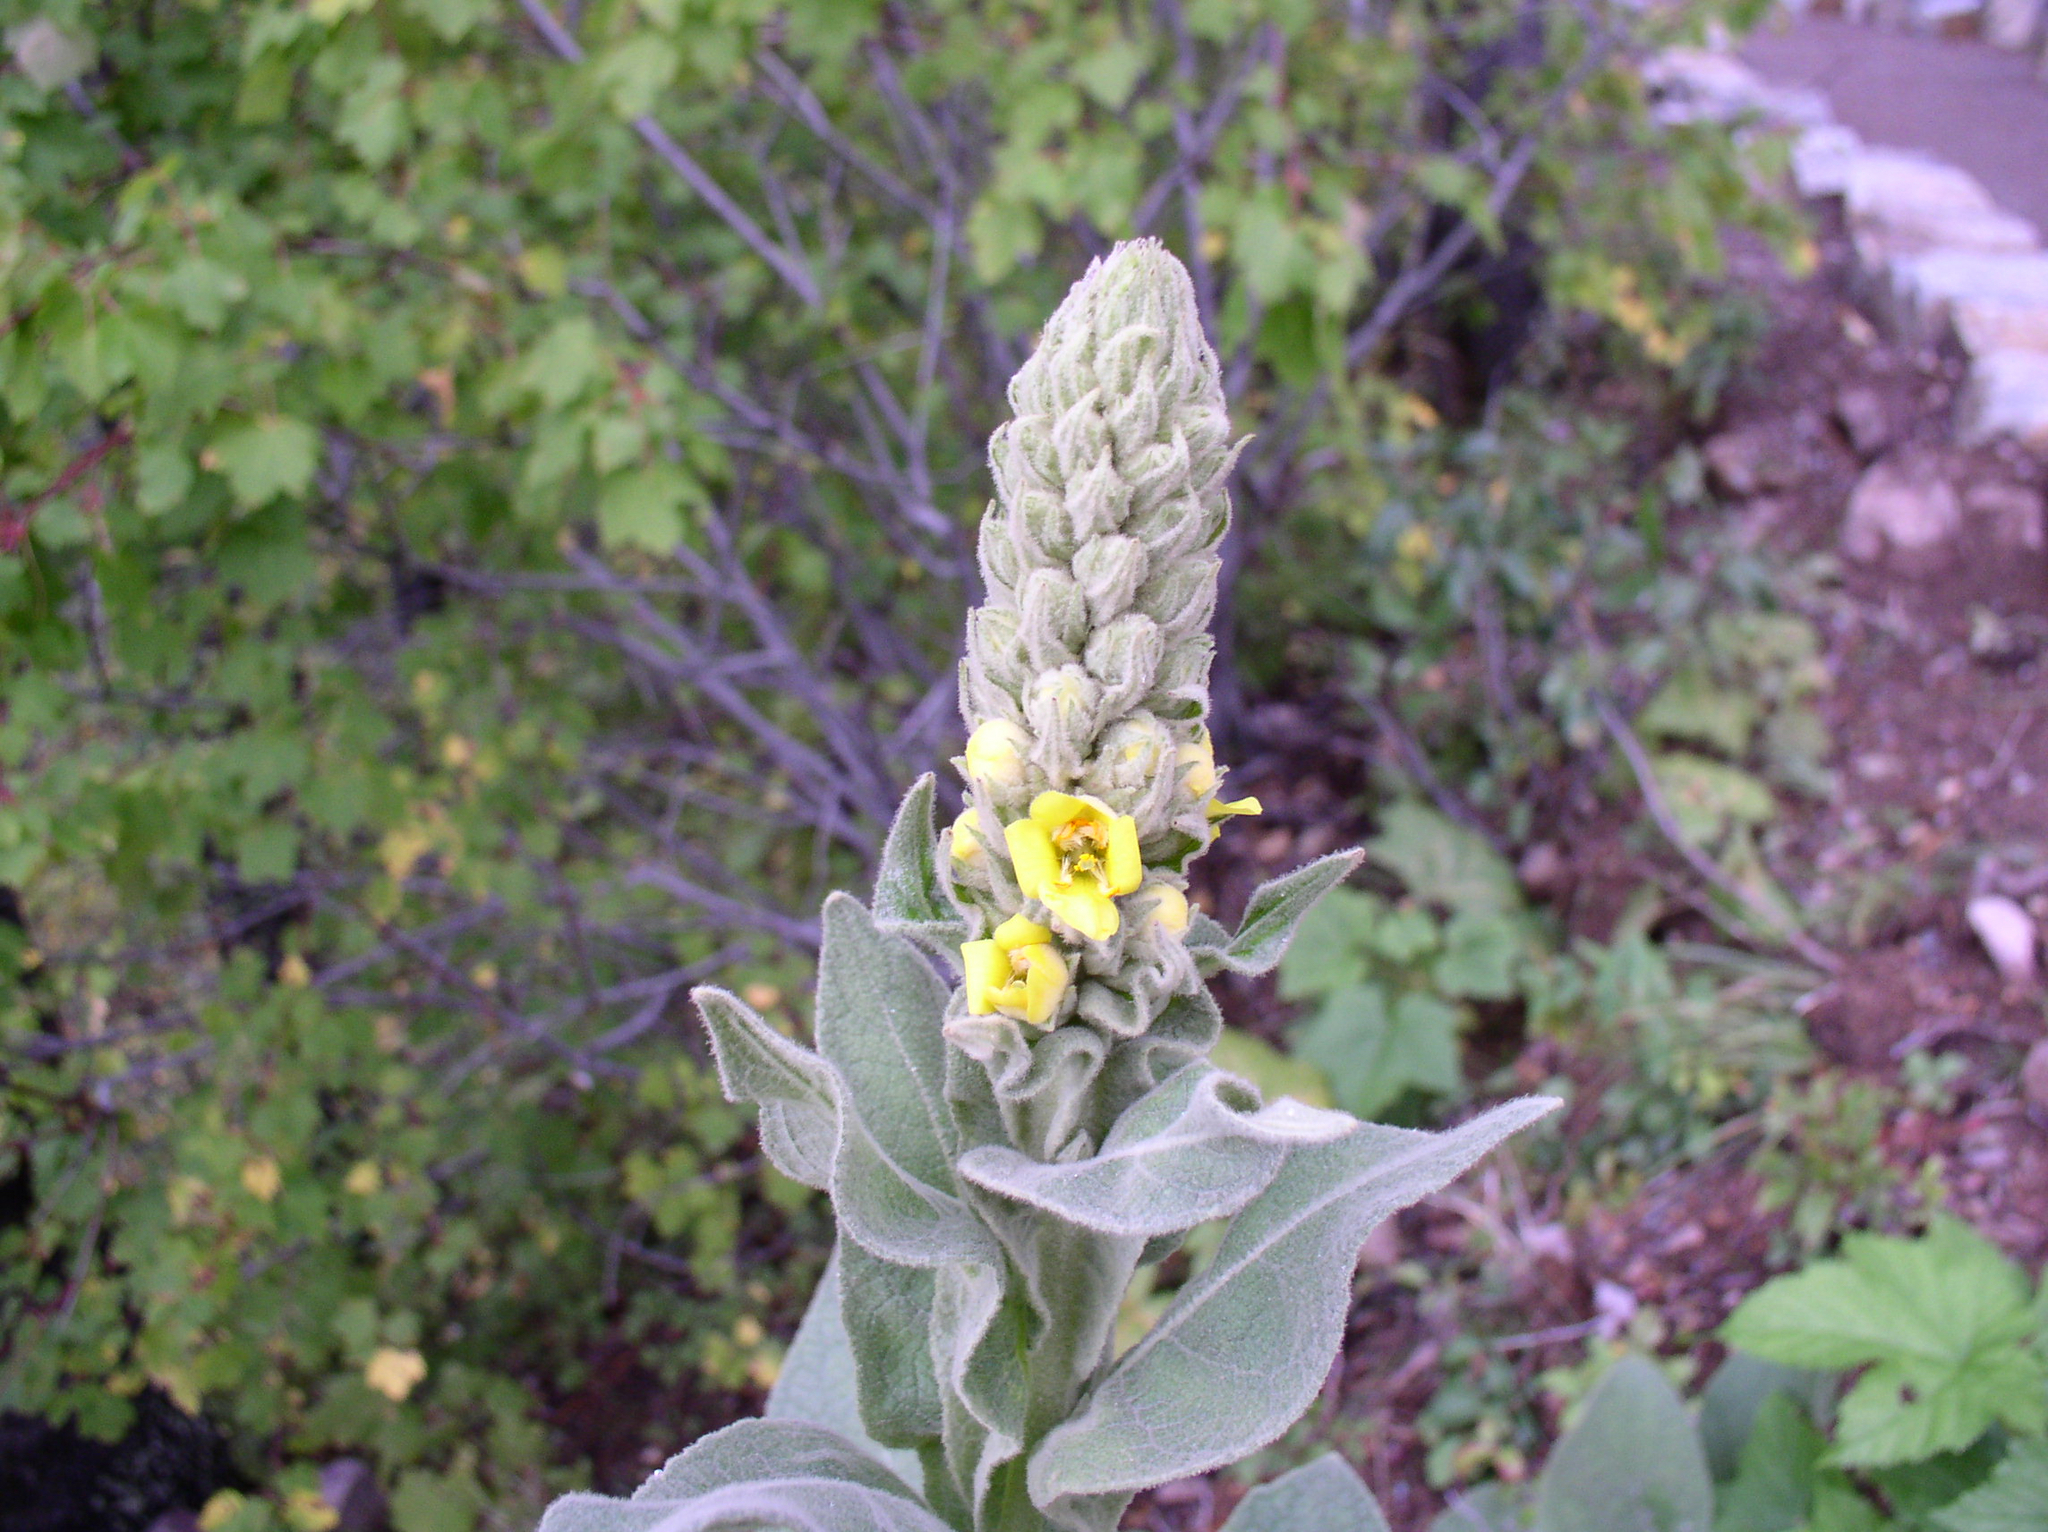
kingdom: Plantae
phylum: Tracheophyta
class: Magnoliopsida
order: Lamiales
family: Scrophulariaceae
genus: Verbascum
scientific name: Verbascum thapsus
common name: Common mullein
